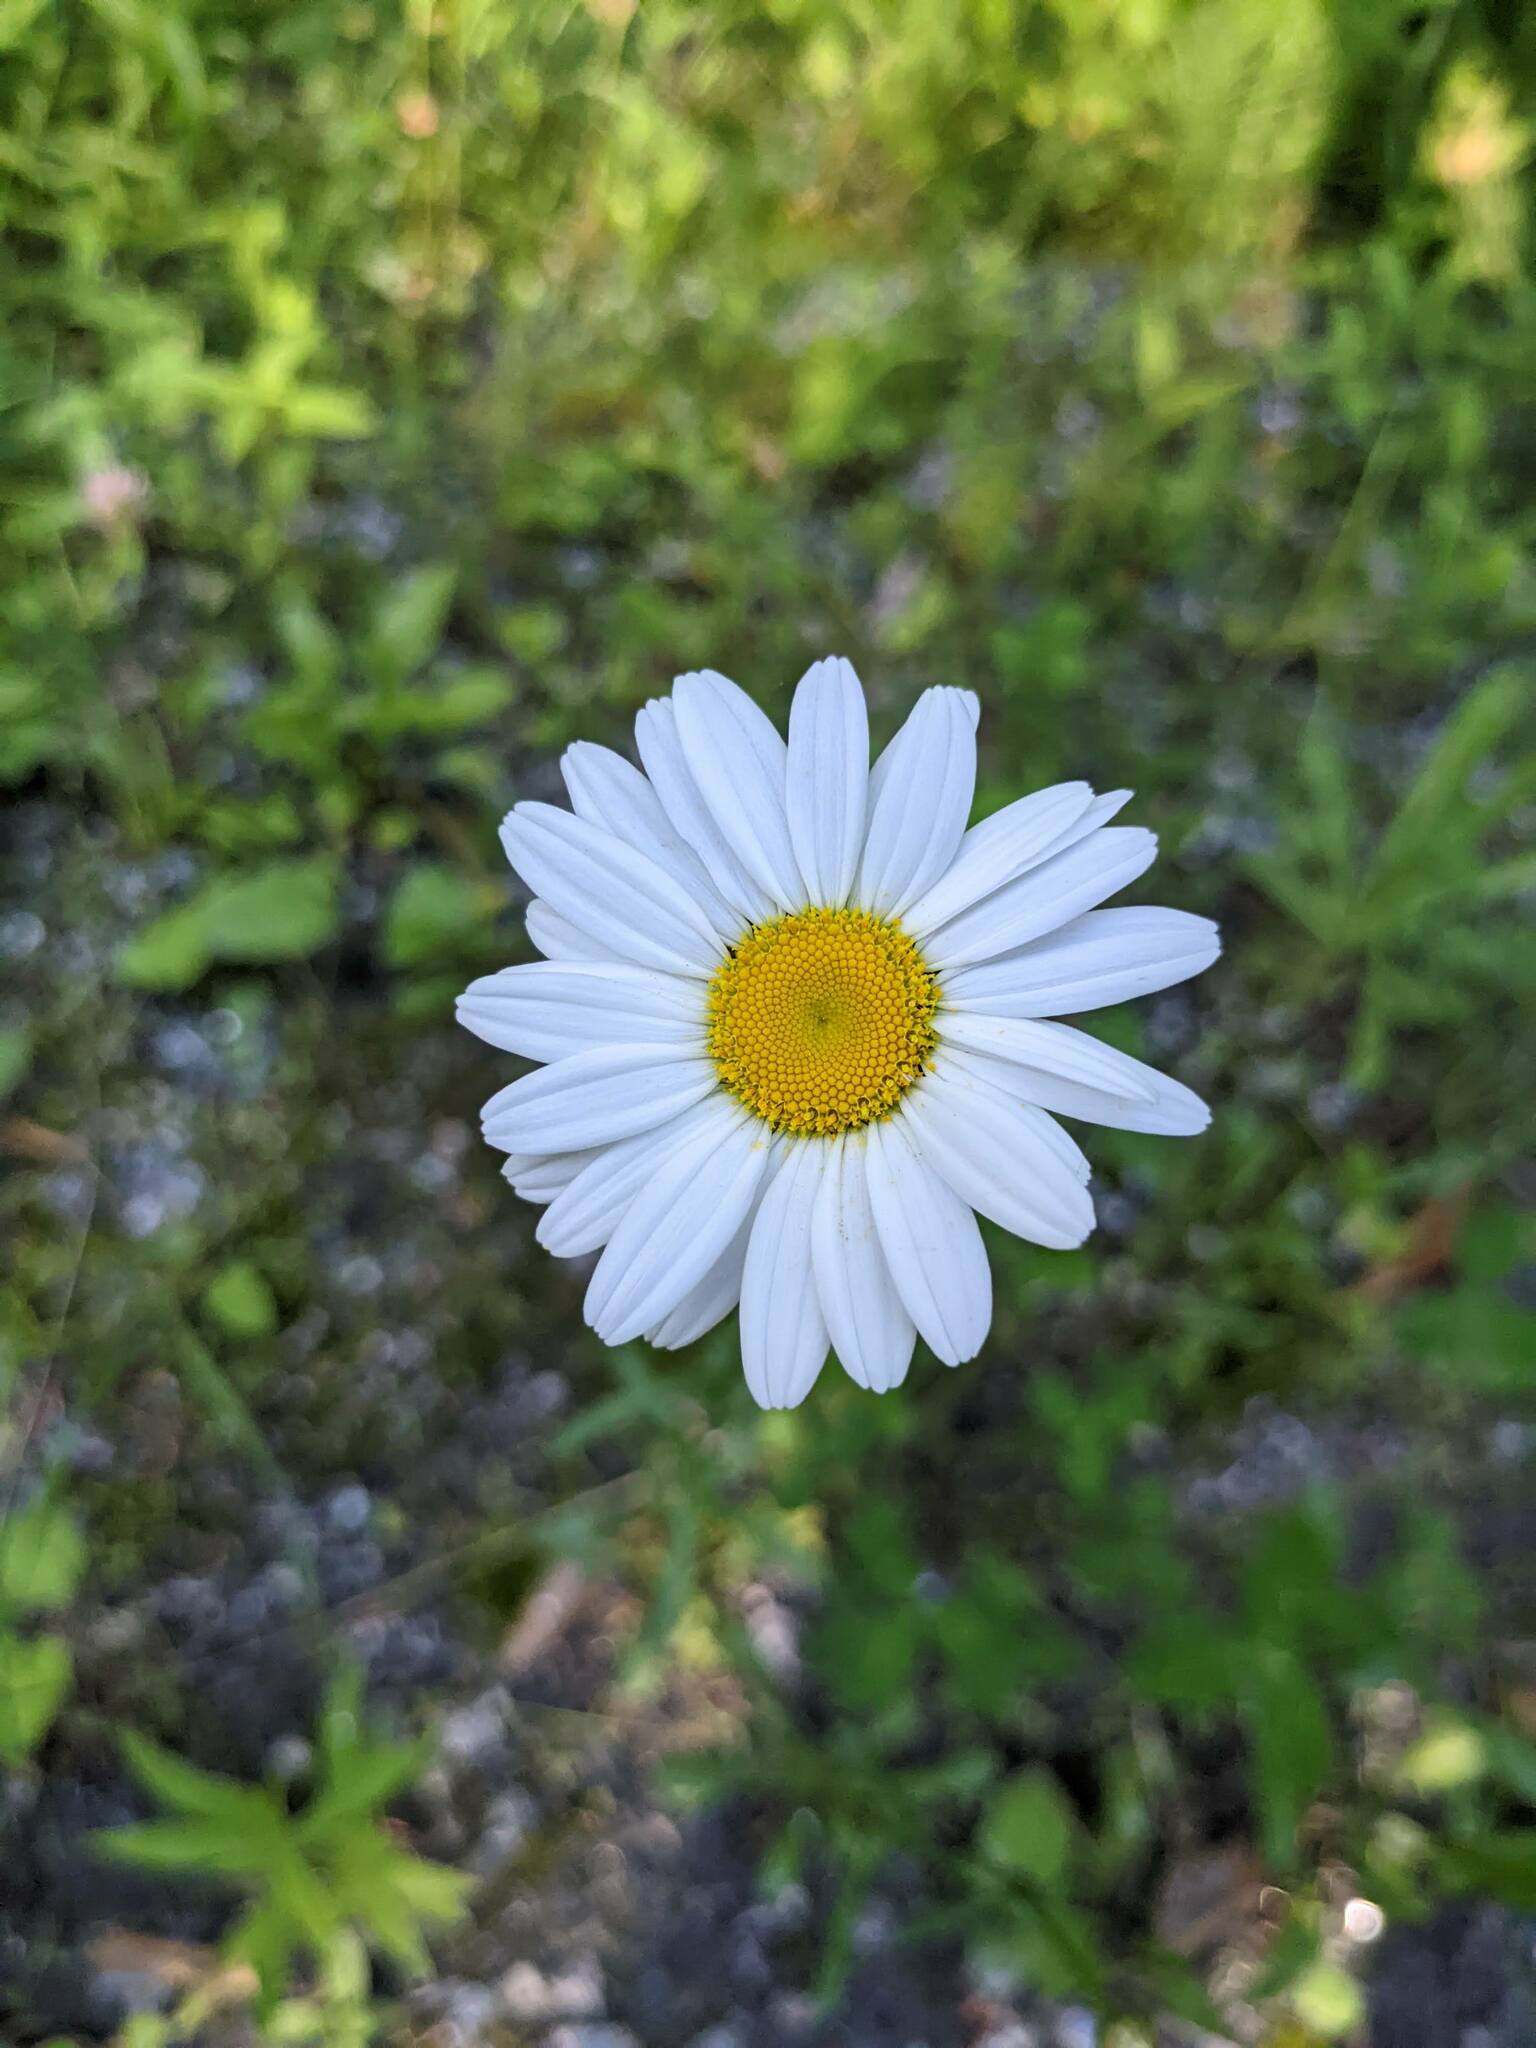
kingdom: Plantae
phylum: Tracheophyta
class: Magnoliopsida
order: Asterales
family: Asteraceae
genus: Leucanthemum
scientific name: Leucanthemum vulgare
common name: Oxeye daisy
